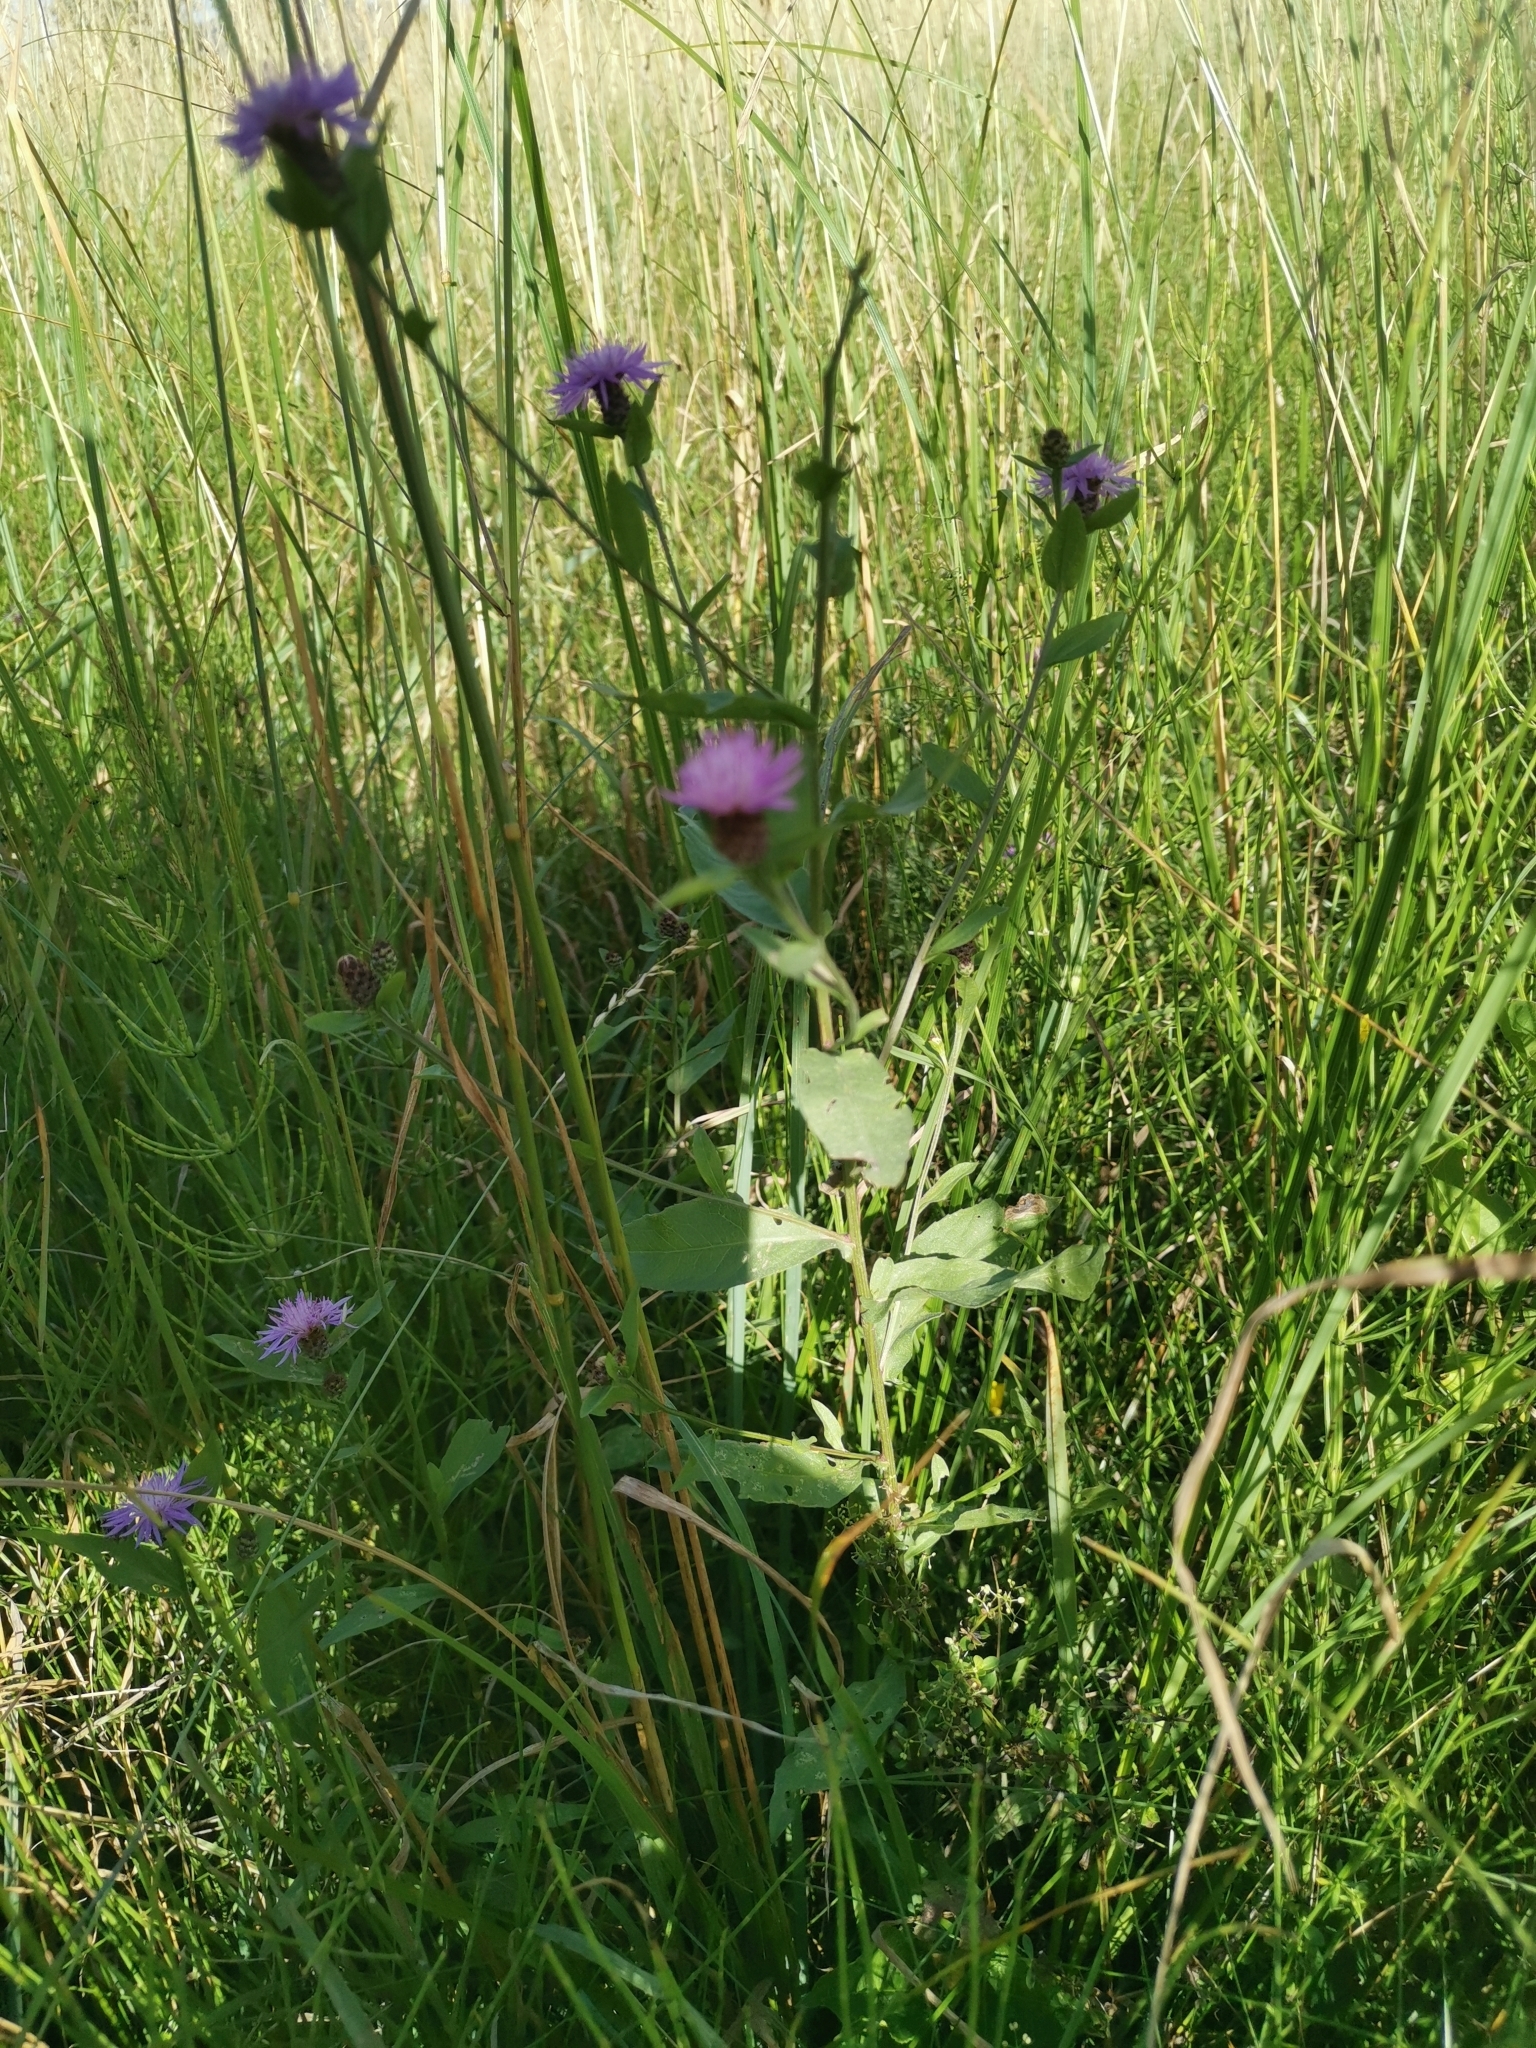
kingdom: Plantae
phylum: Tracheophyta
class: Magnoliopsida
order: Asterales
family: Asteraceae
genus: Centaurea
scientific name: Centaurea nigrescens
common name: Tyrol knapweed
